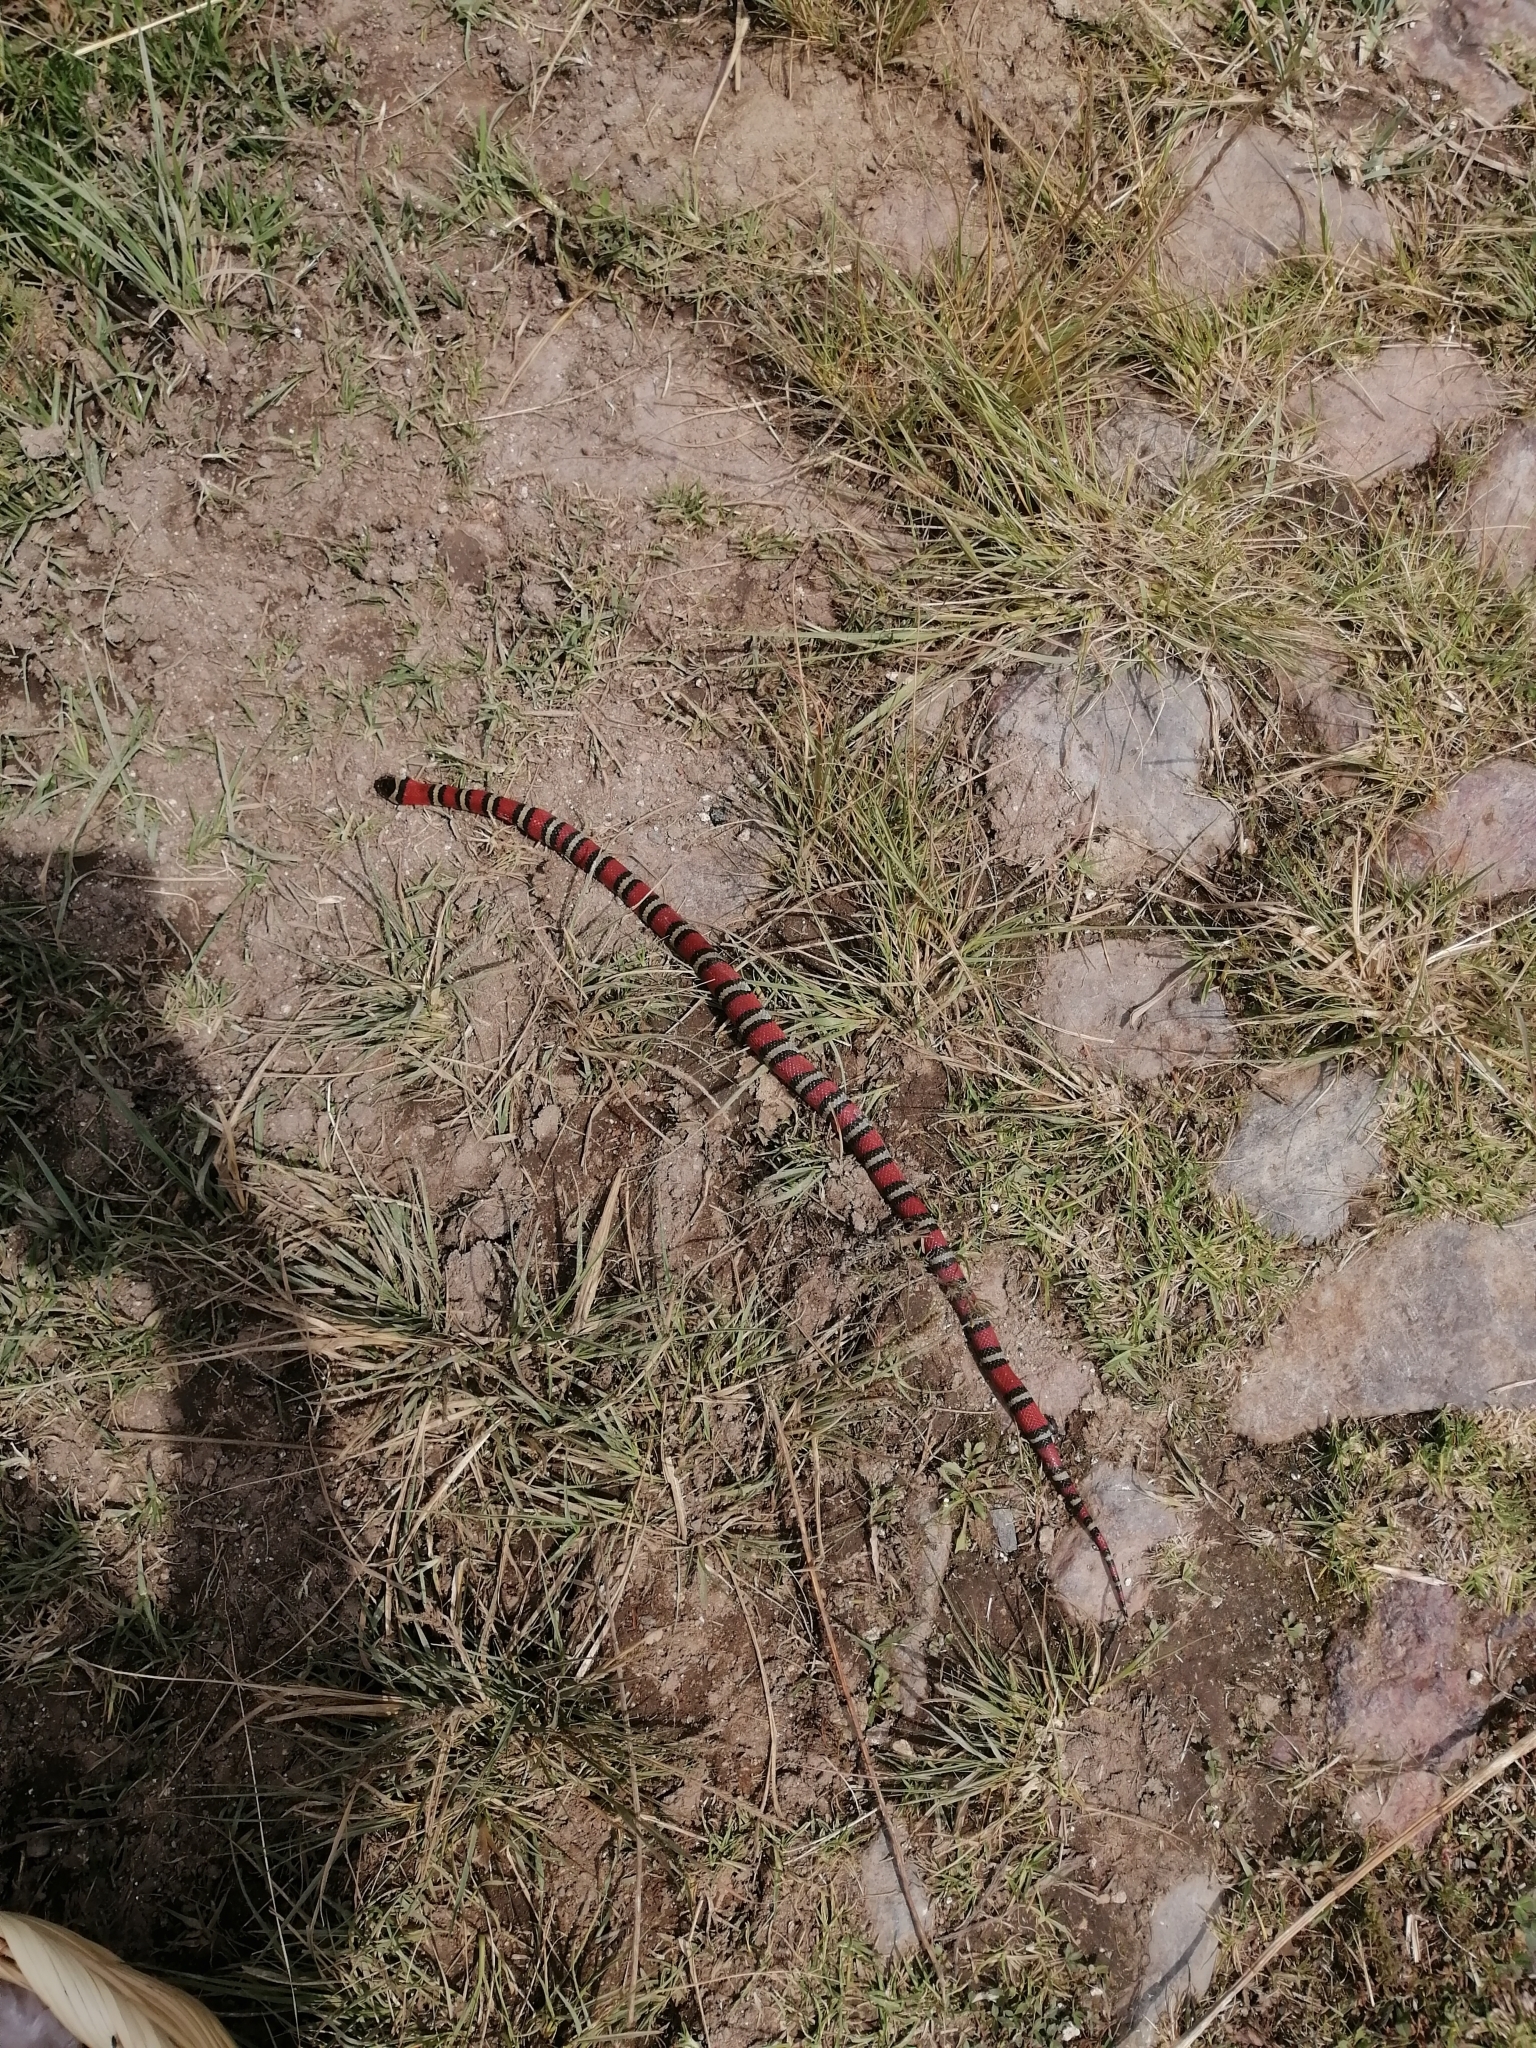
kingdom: Animalia
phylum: Chordata
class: Squamata
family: Colubridae
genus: Lampropeltis
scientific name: Lampropeltis ruthveni
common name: Ruthvens kingsnake
